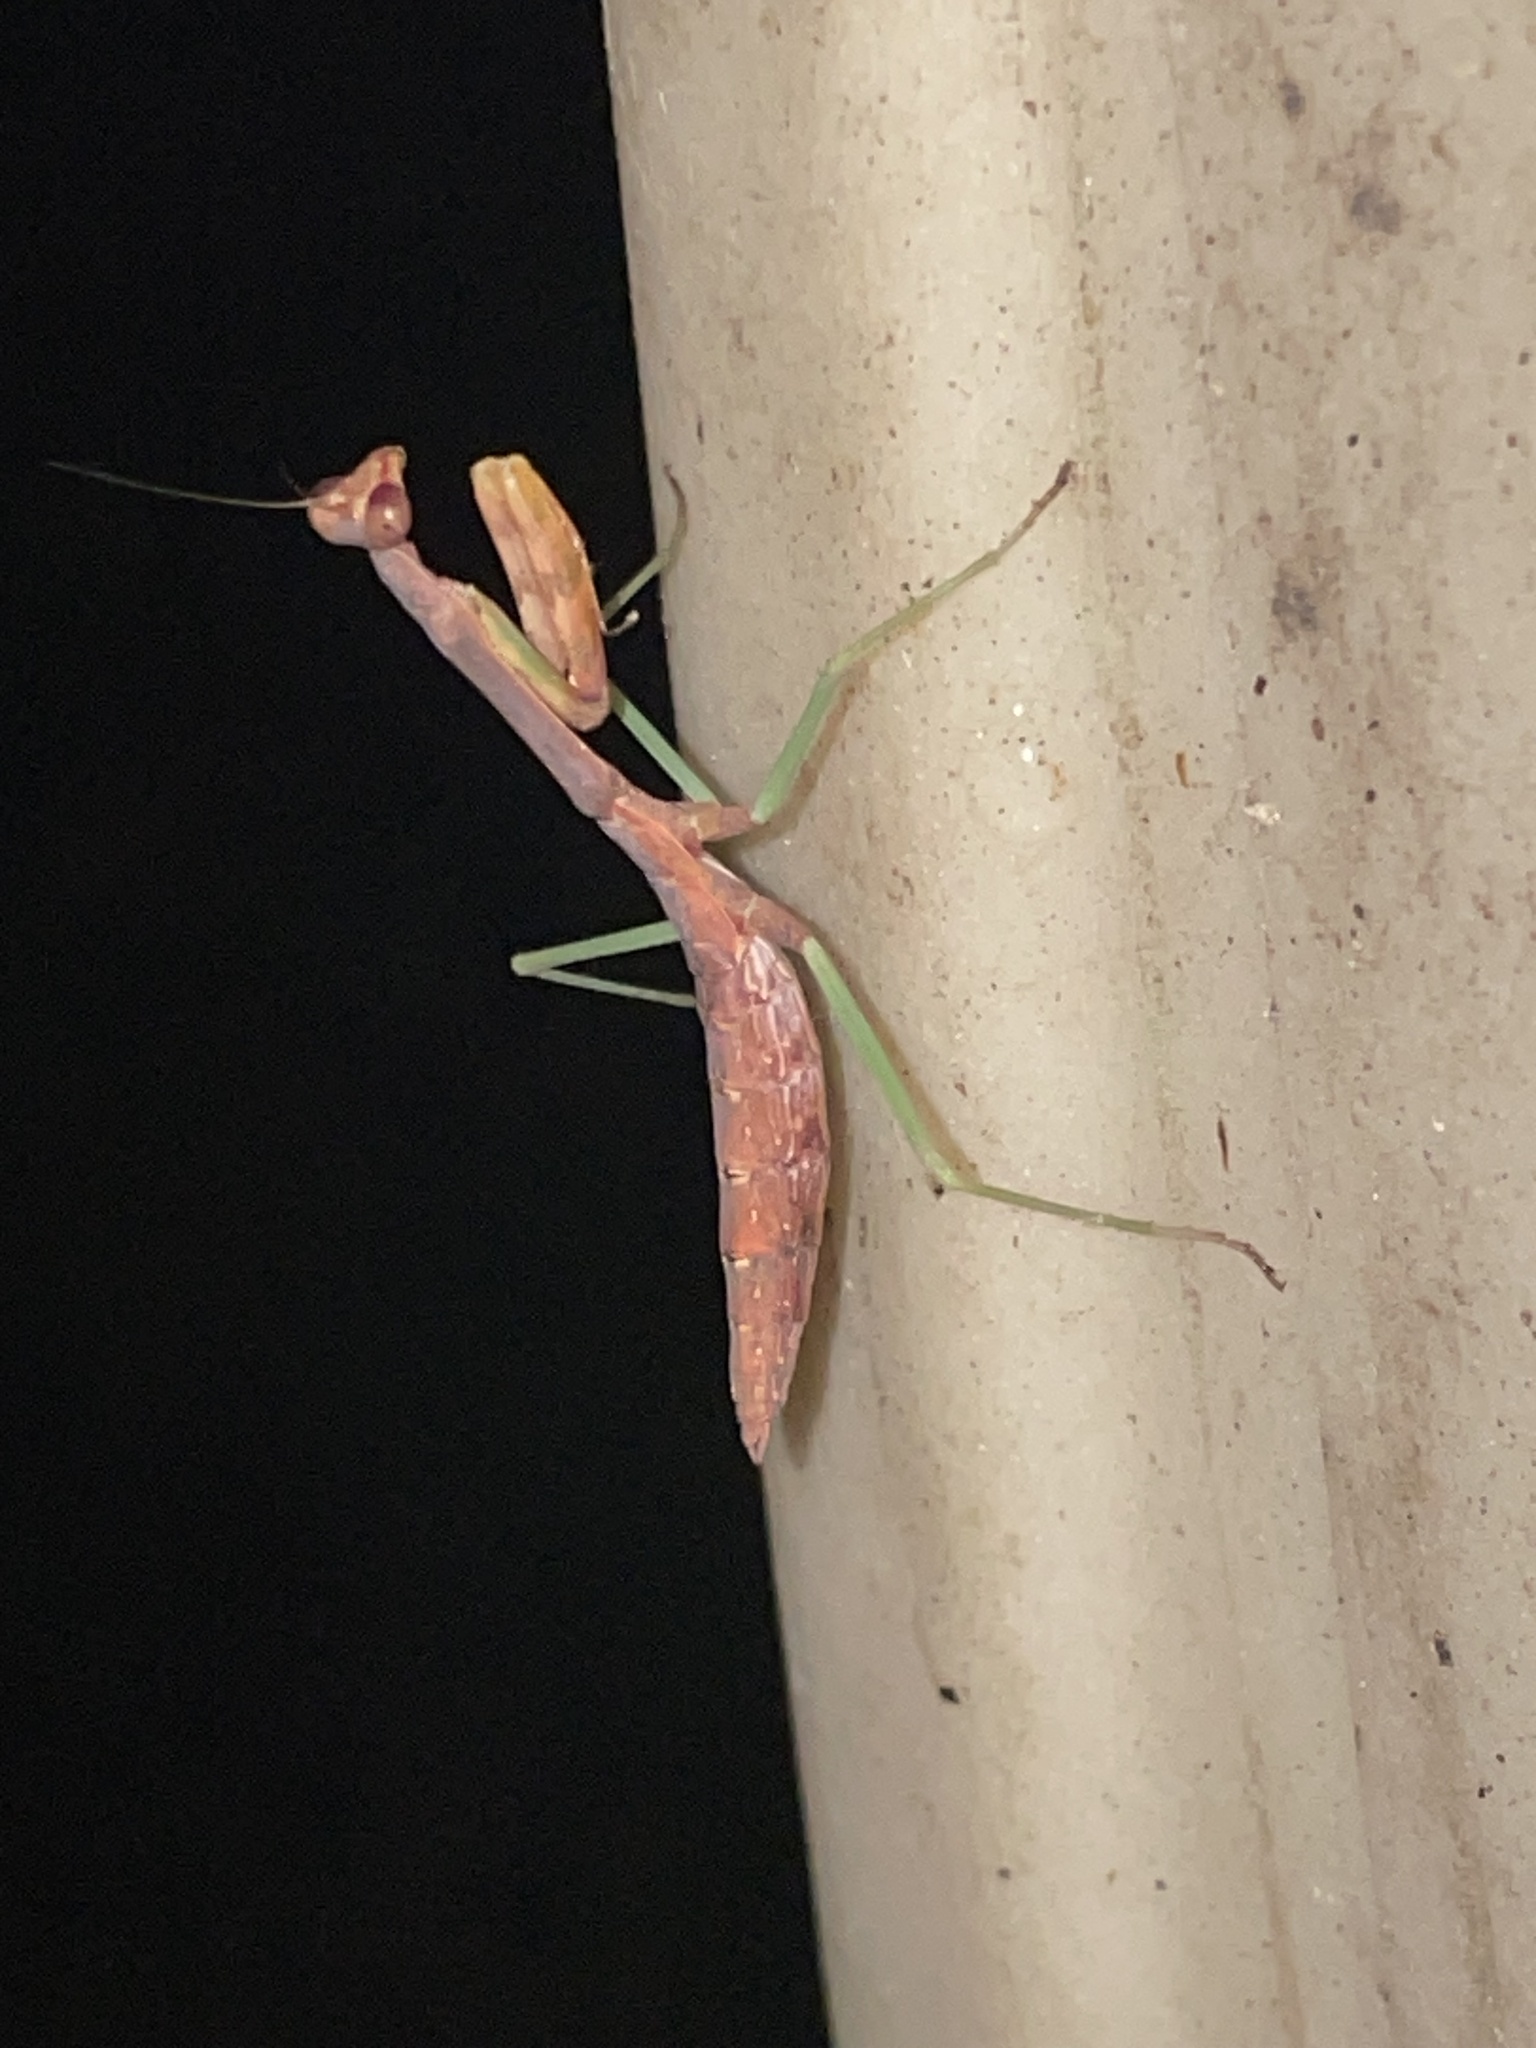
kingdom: Animalia
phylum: Arthropoda
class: Insecta
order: Mantodea
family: Mantidae
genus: Stagmomantis
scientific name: Stagmomantis carolina
